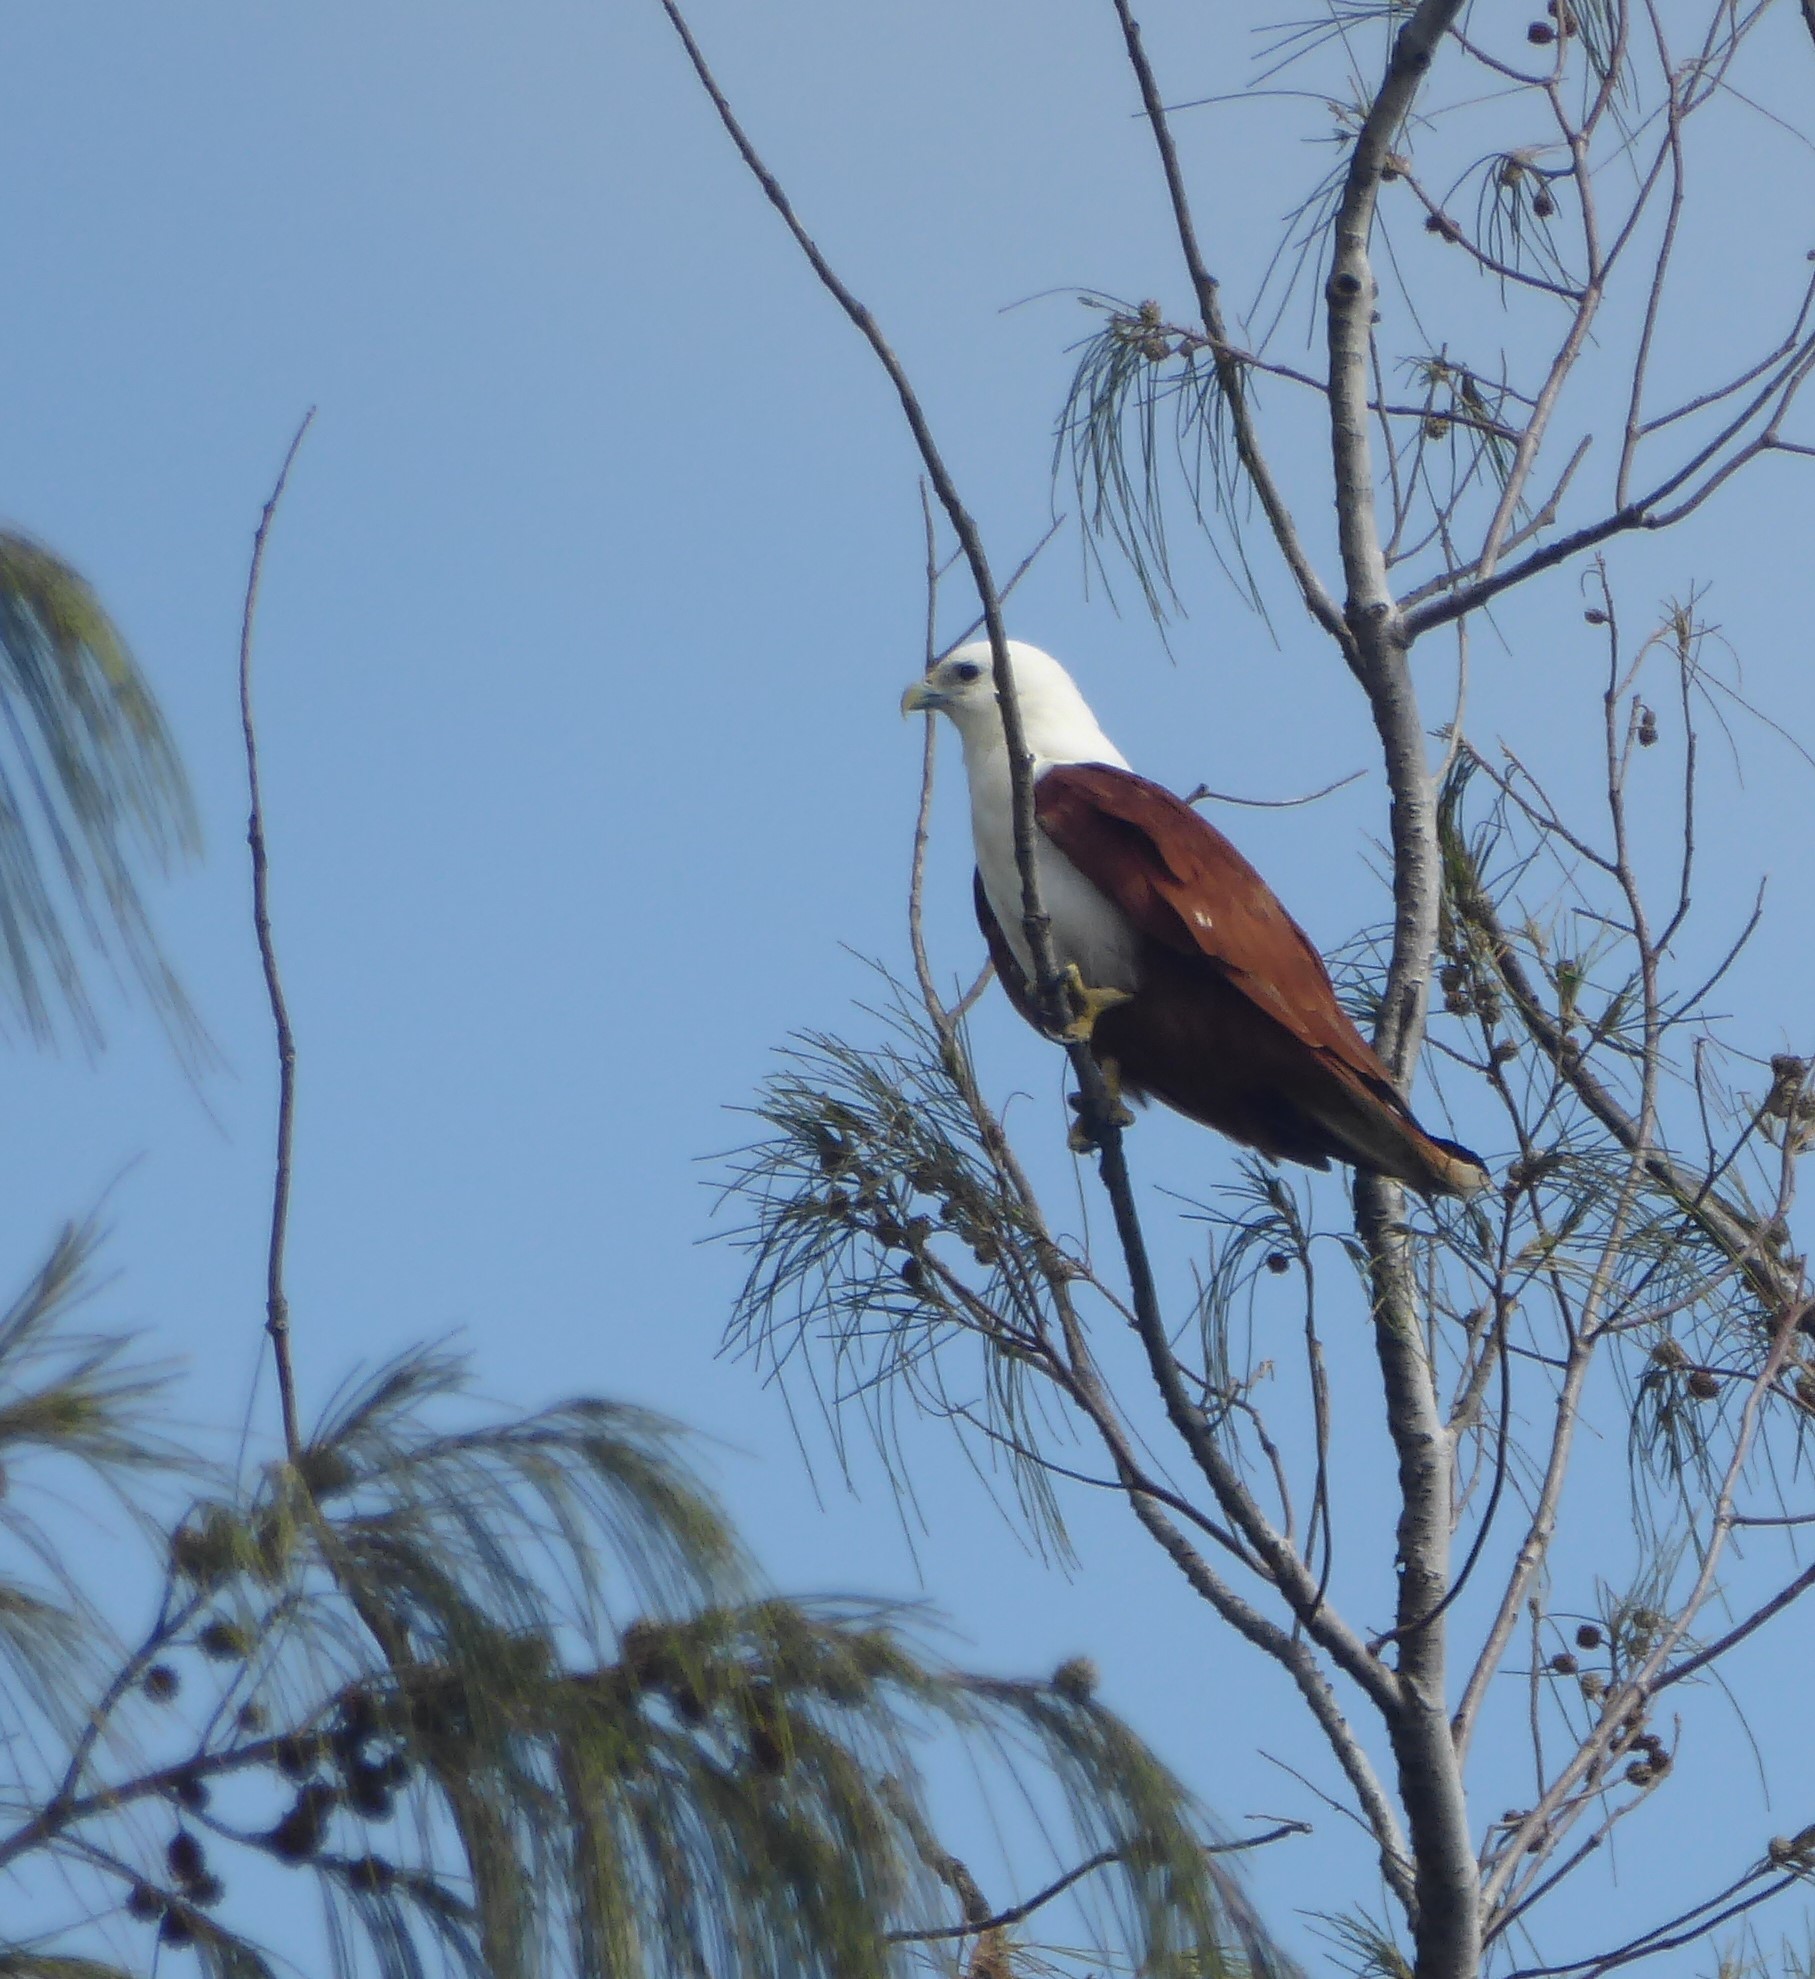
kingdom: Animalia
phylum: Chordata
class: Aves
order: Accipitriformes
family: Accipitridae
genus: Haliastur
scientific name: Haliastur indus
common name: Brahminy kite
